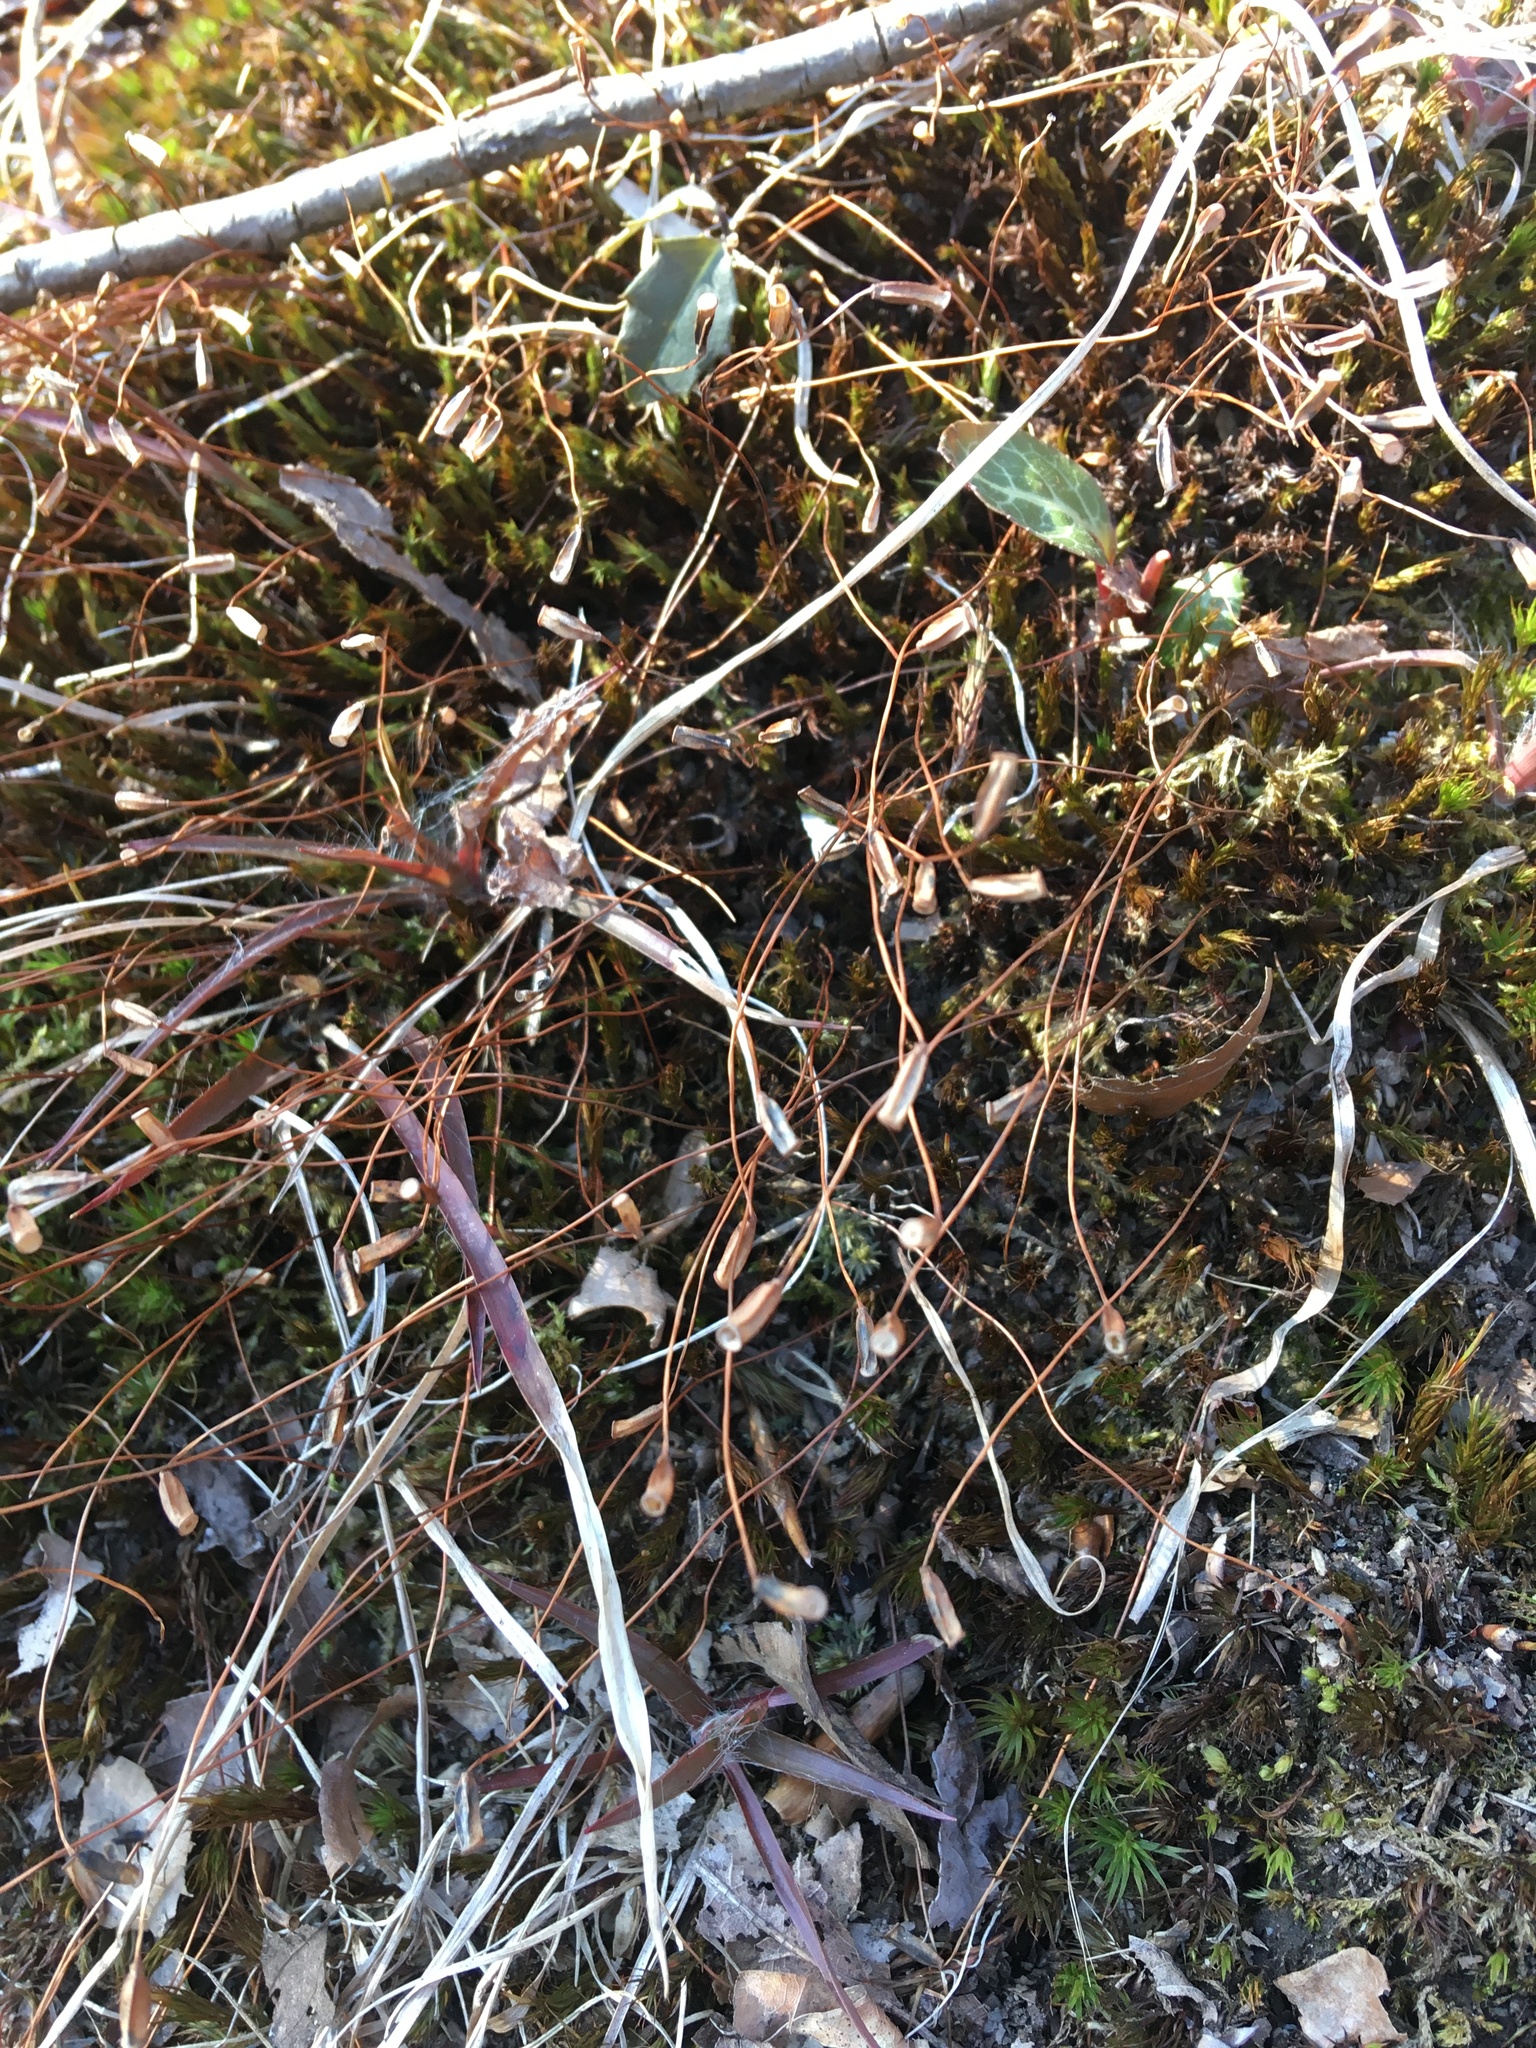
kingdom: Plantae
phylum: Bryophyta
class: Polytrichopsida
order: Polytrichales
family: Polytrichaceae
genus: Polytrichum
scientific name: Polytrichum commune
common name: Common haircap
